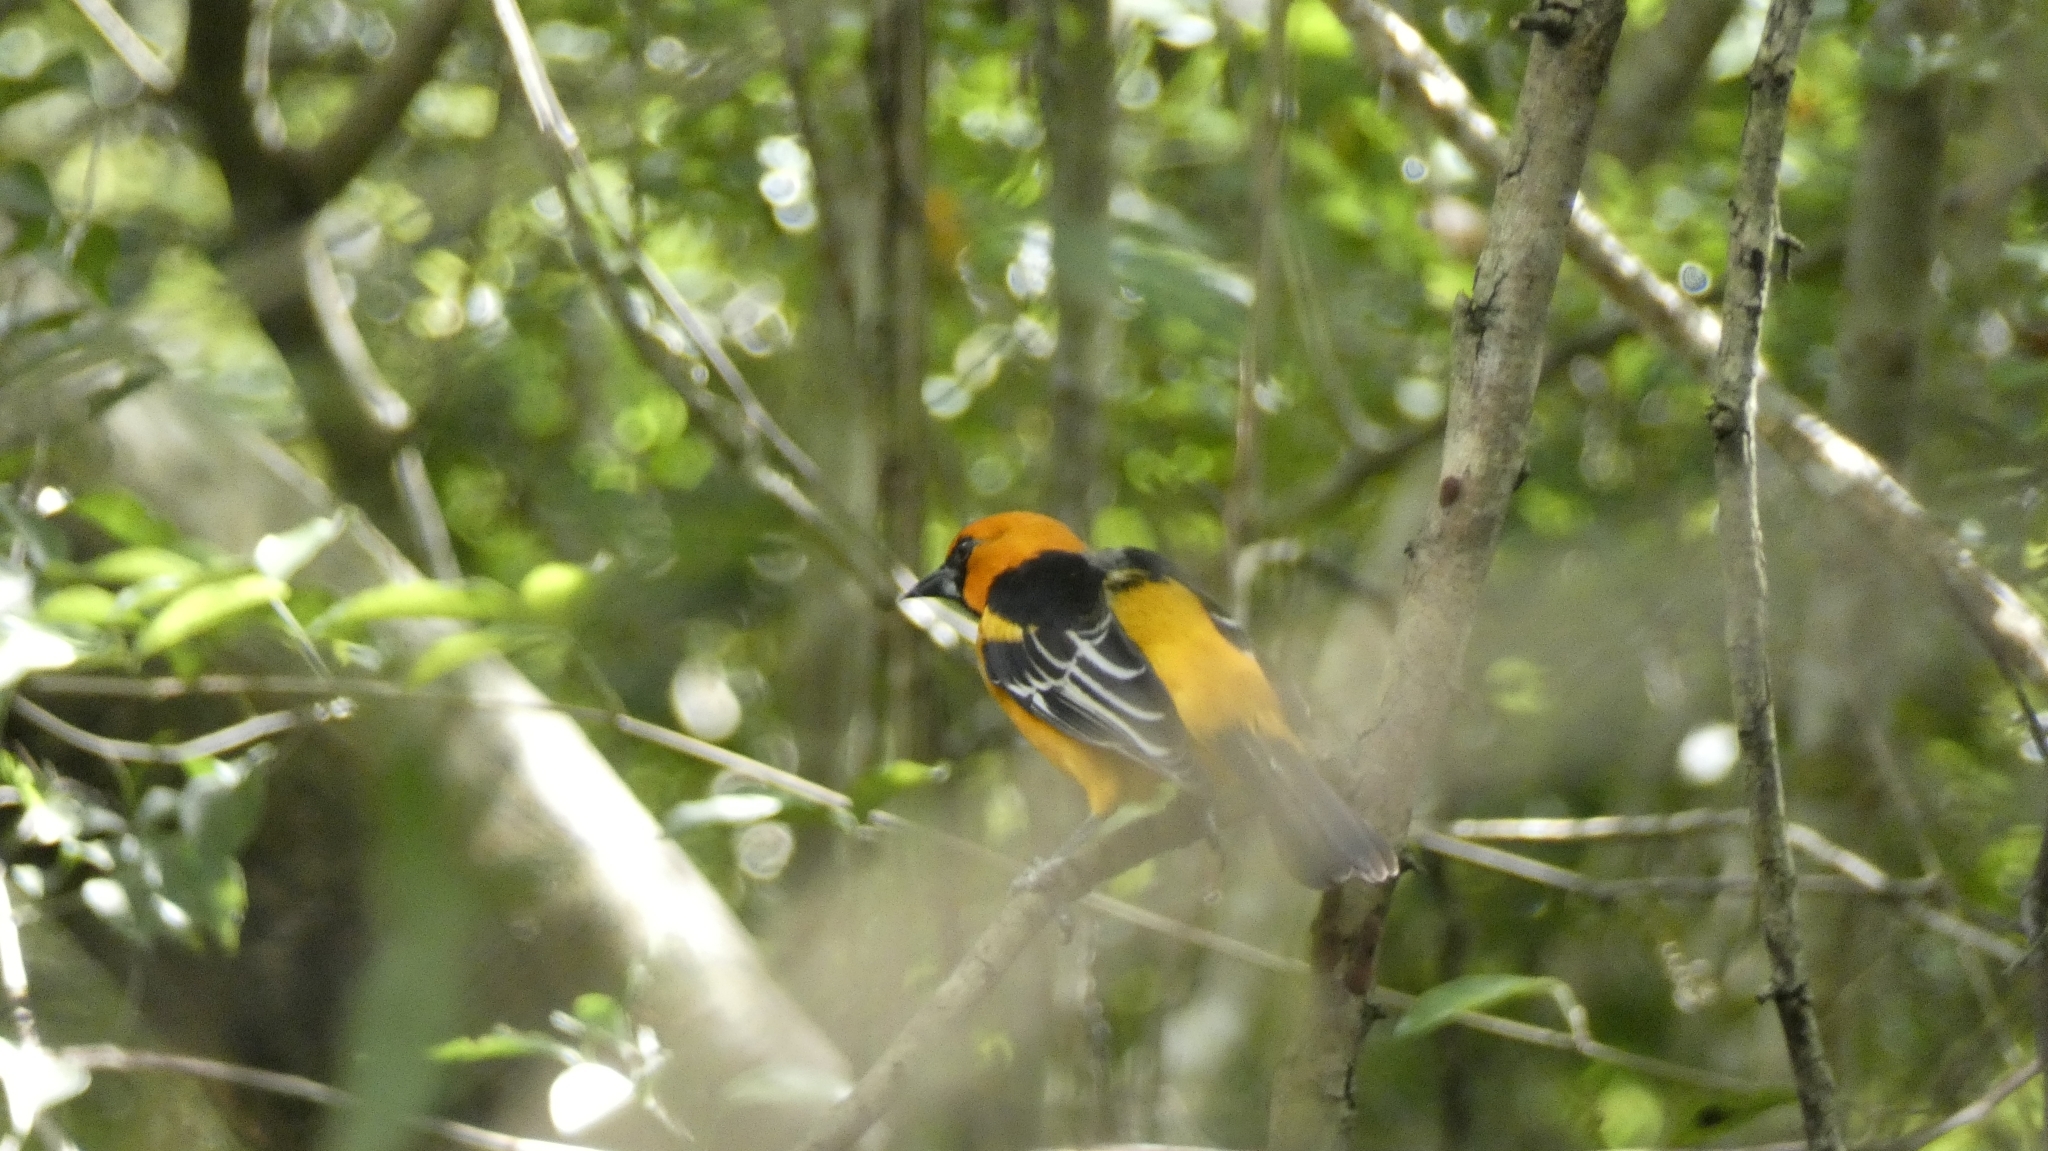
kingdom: Animalia
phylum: Chordata
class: Aves
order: Passeriformes
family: Icteridae
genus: Icterus
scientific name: Icterus gularis
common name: Altamira oriole
